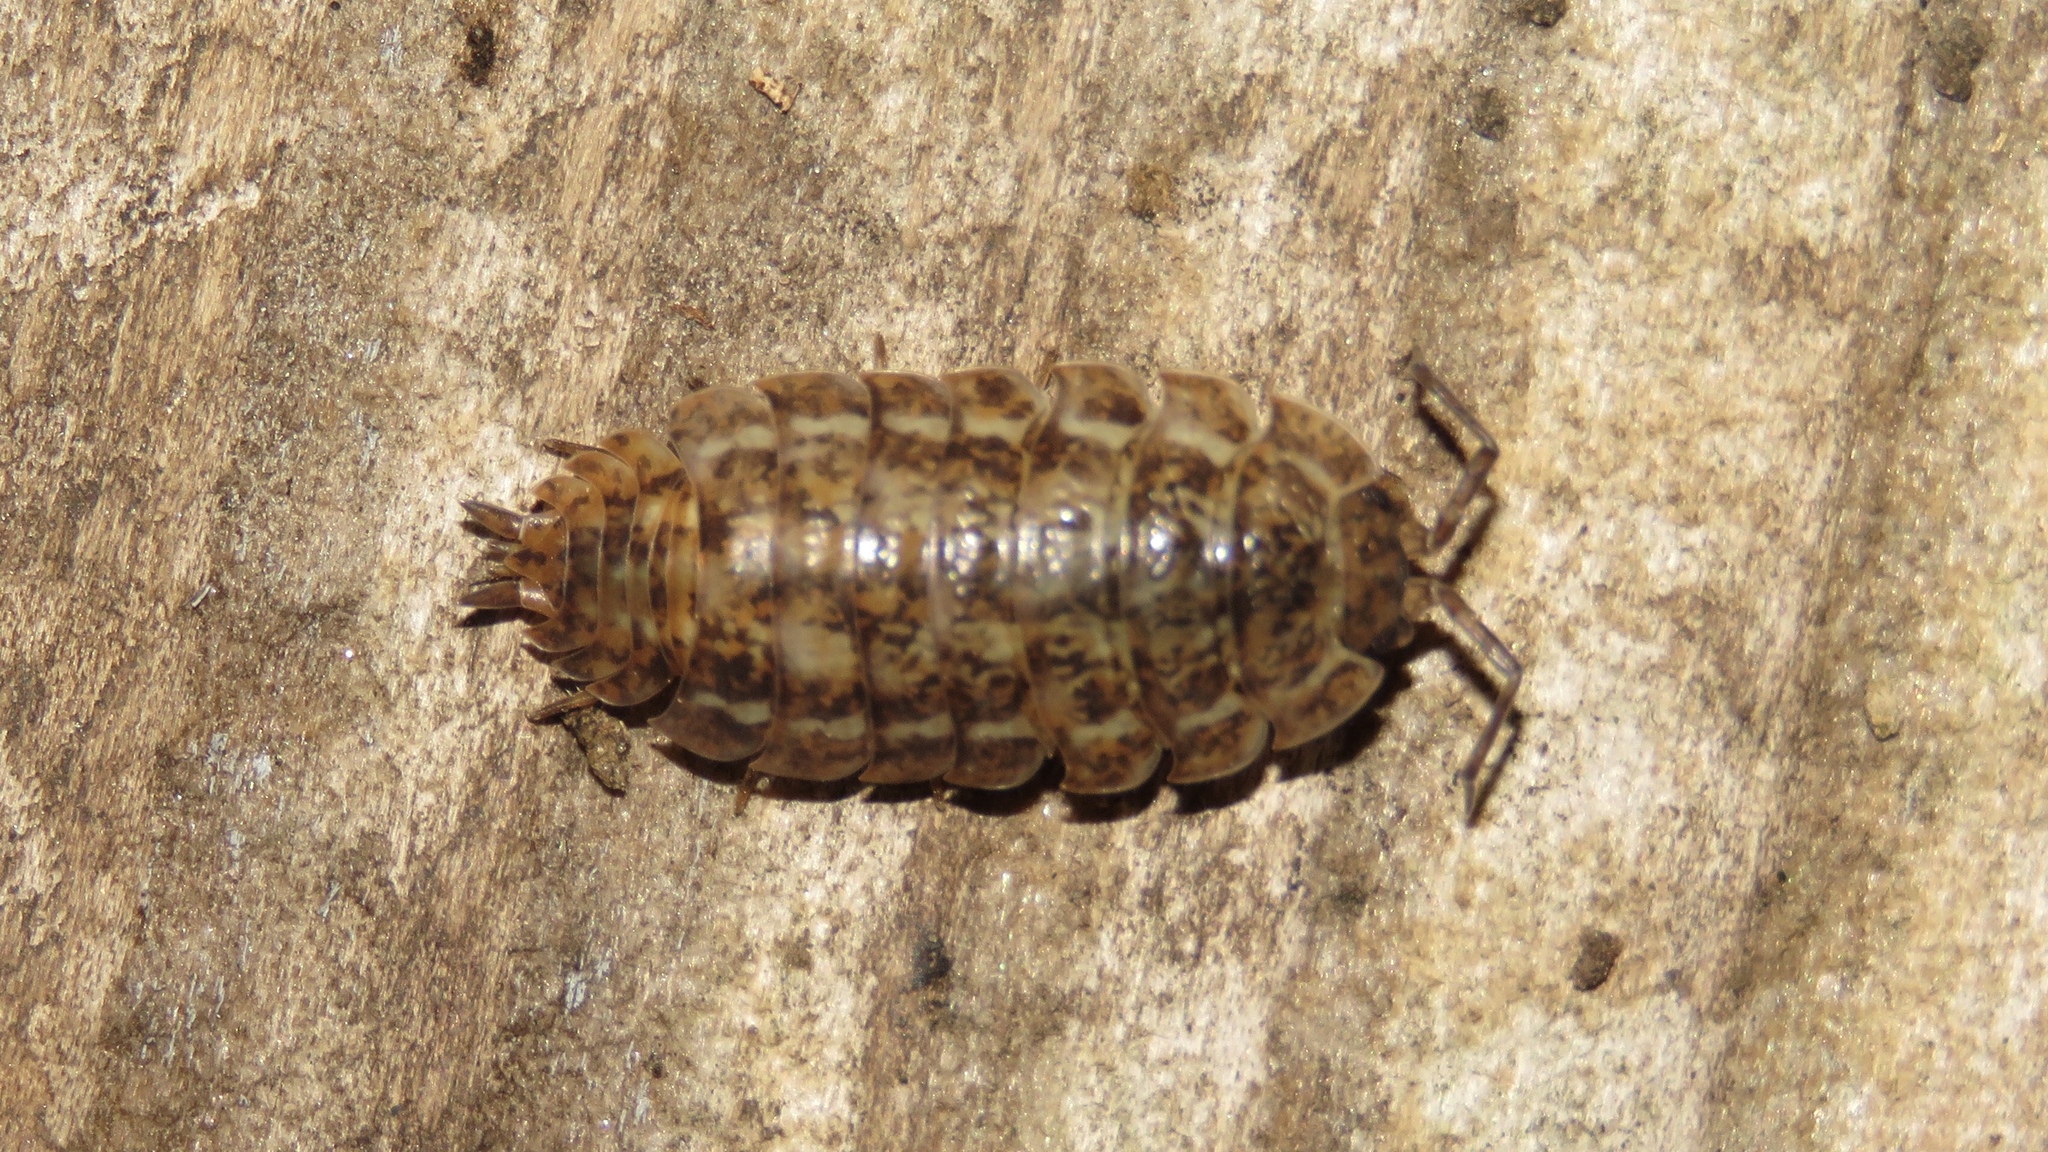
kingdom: Animalia
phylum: Arthropoda
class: Malacostraca
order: Isopoda
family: Trachelipodidae
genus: Trachelipus
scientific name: Trachelipus rathkii
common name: Isopod
